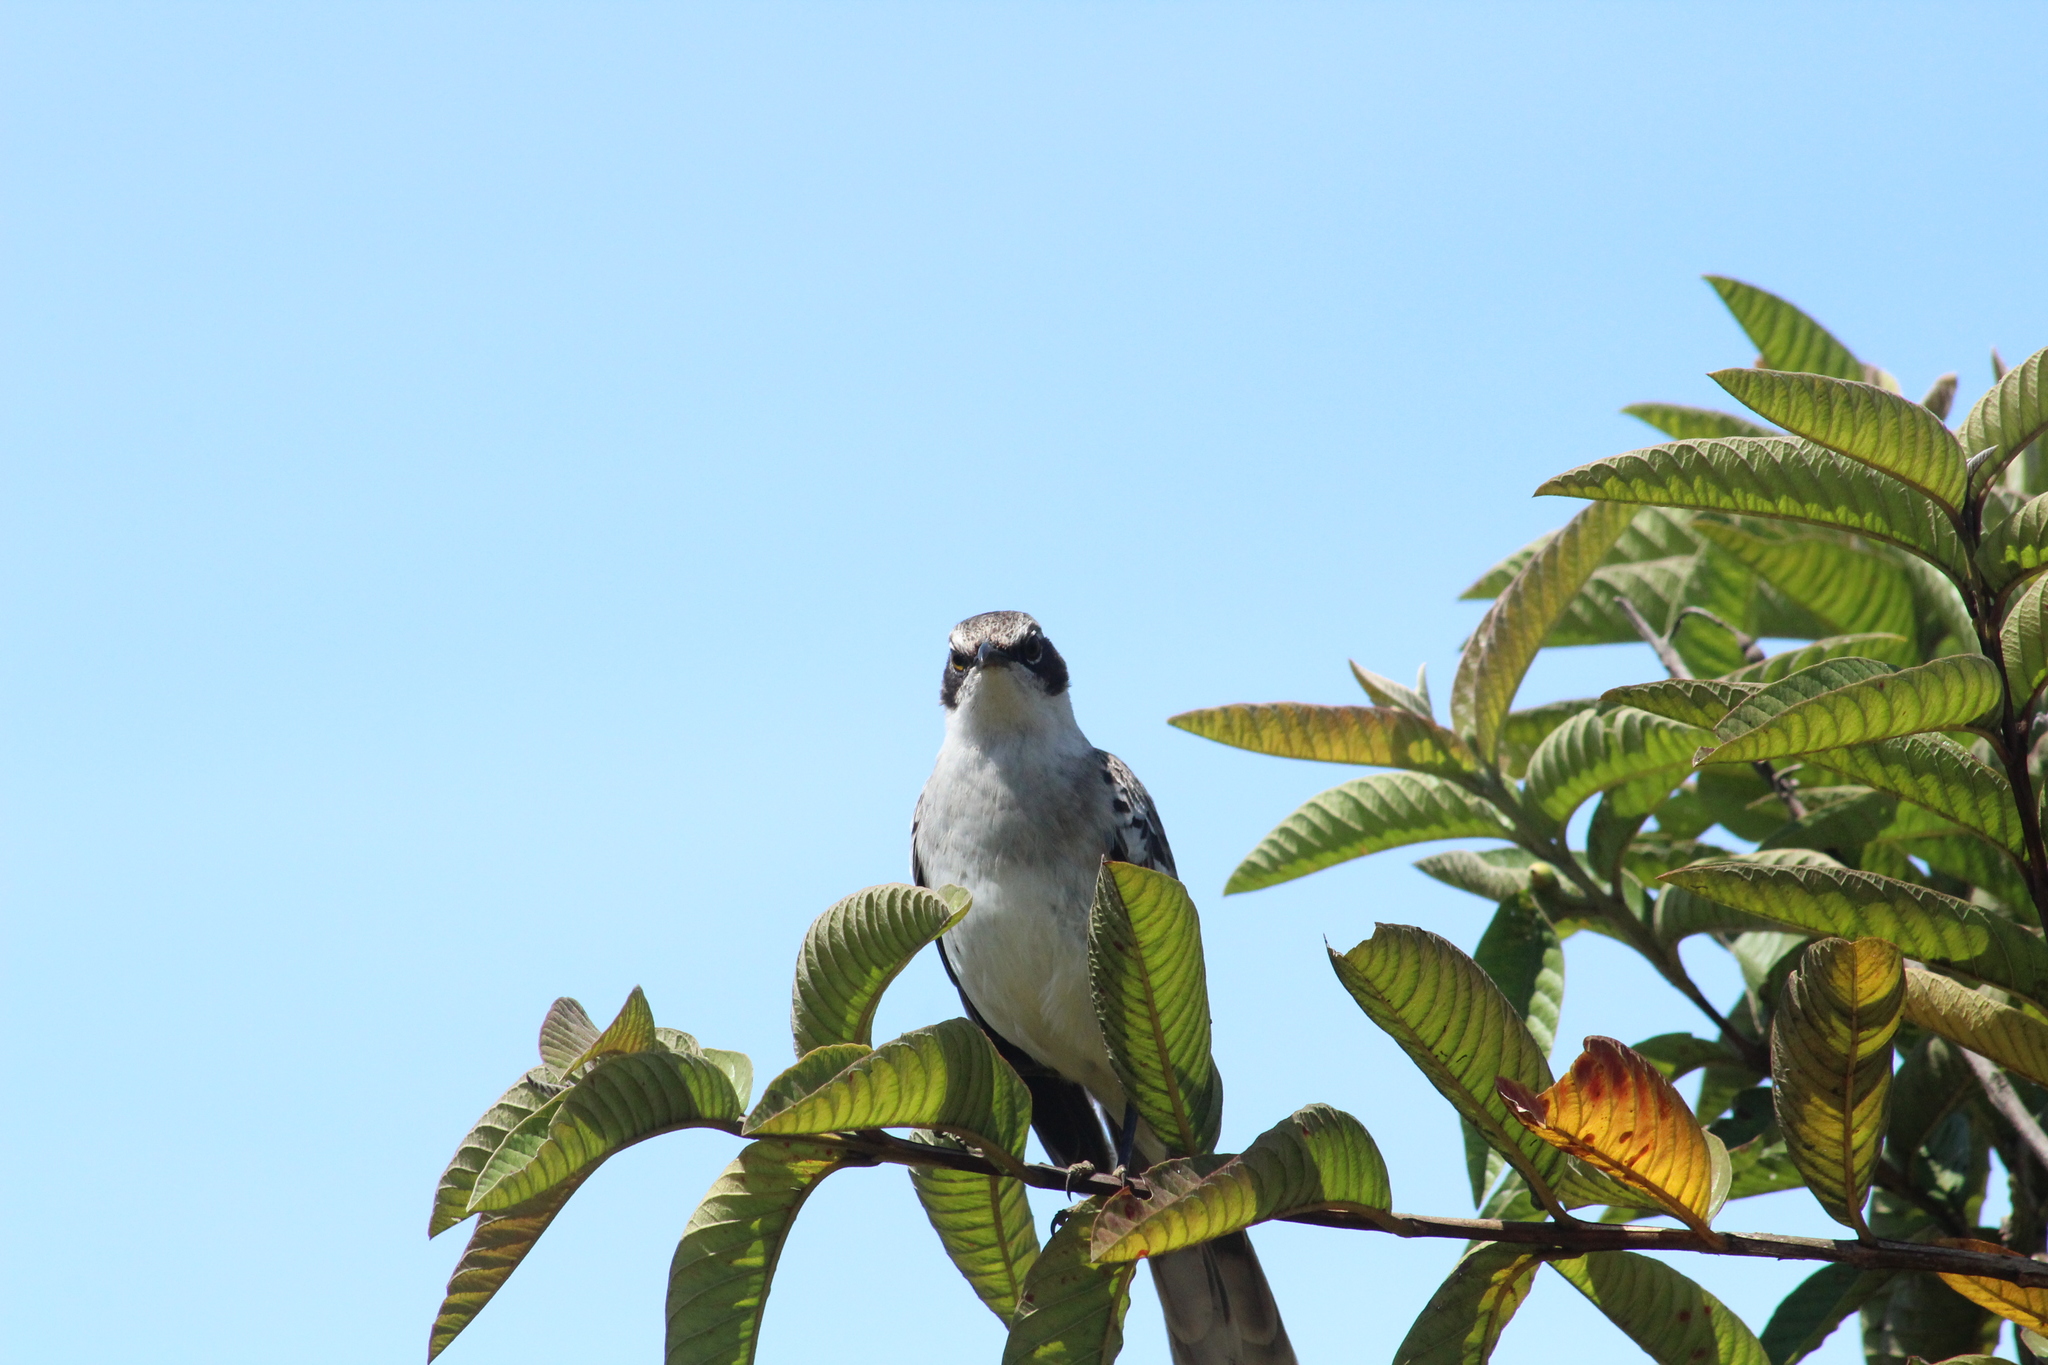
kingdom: Animalia
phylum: Chordata
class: Aves
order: Passeriformes
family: Mimidae
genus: Mimus
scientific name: Mimus parvulus
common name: Galapagos mockingbird
